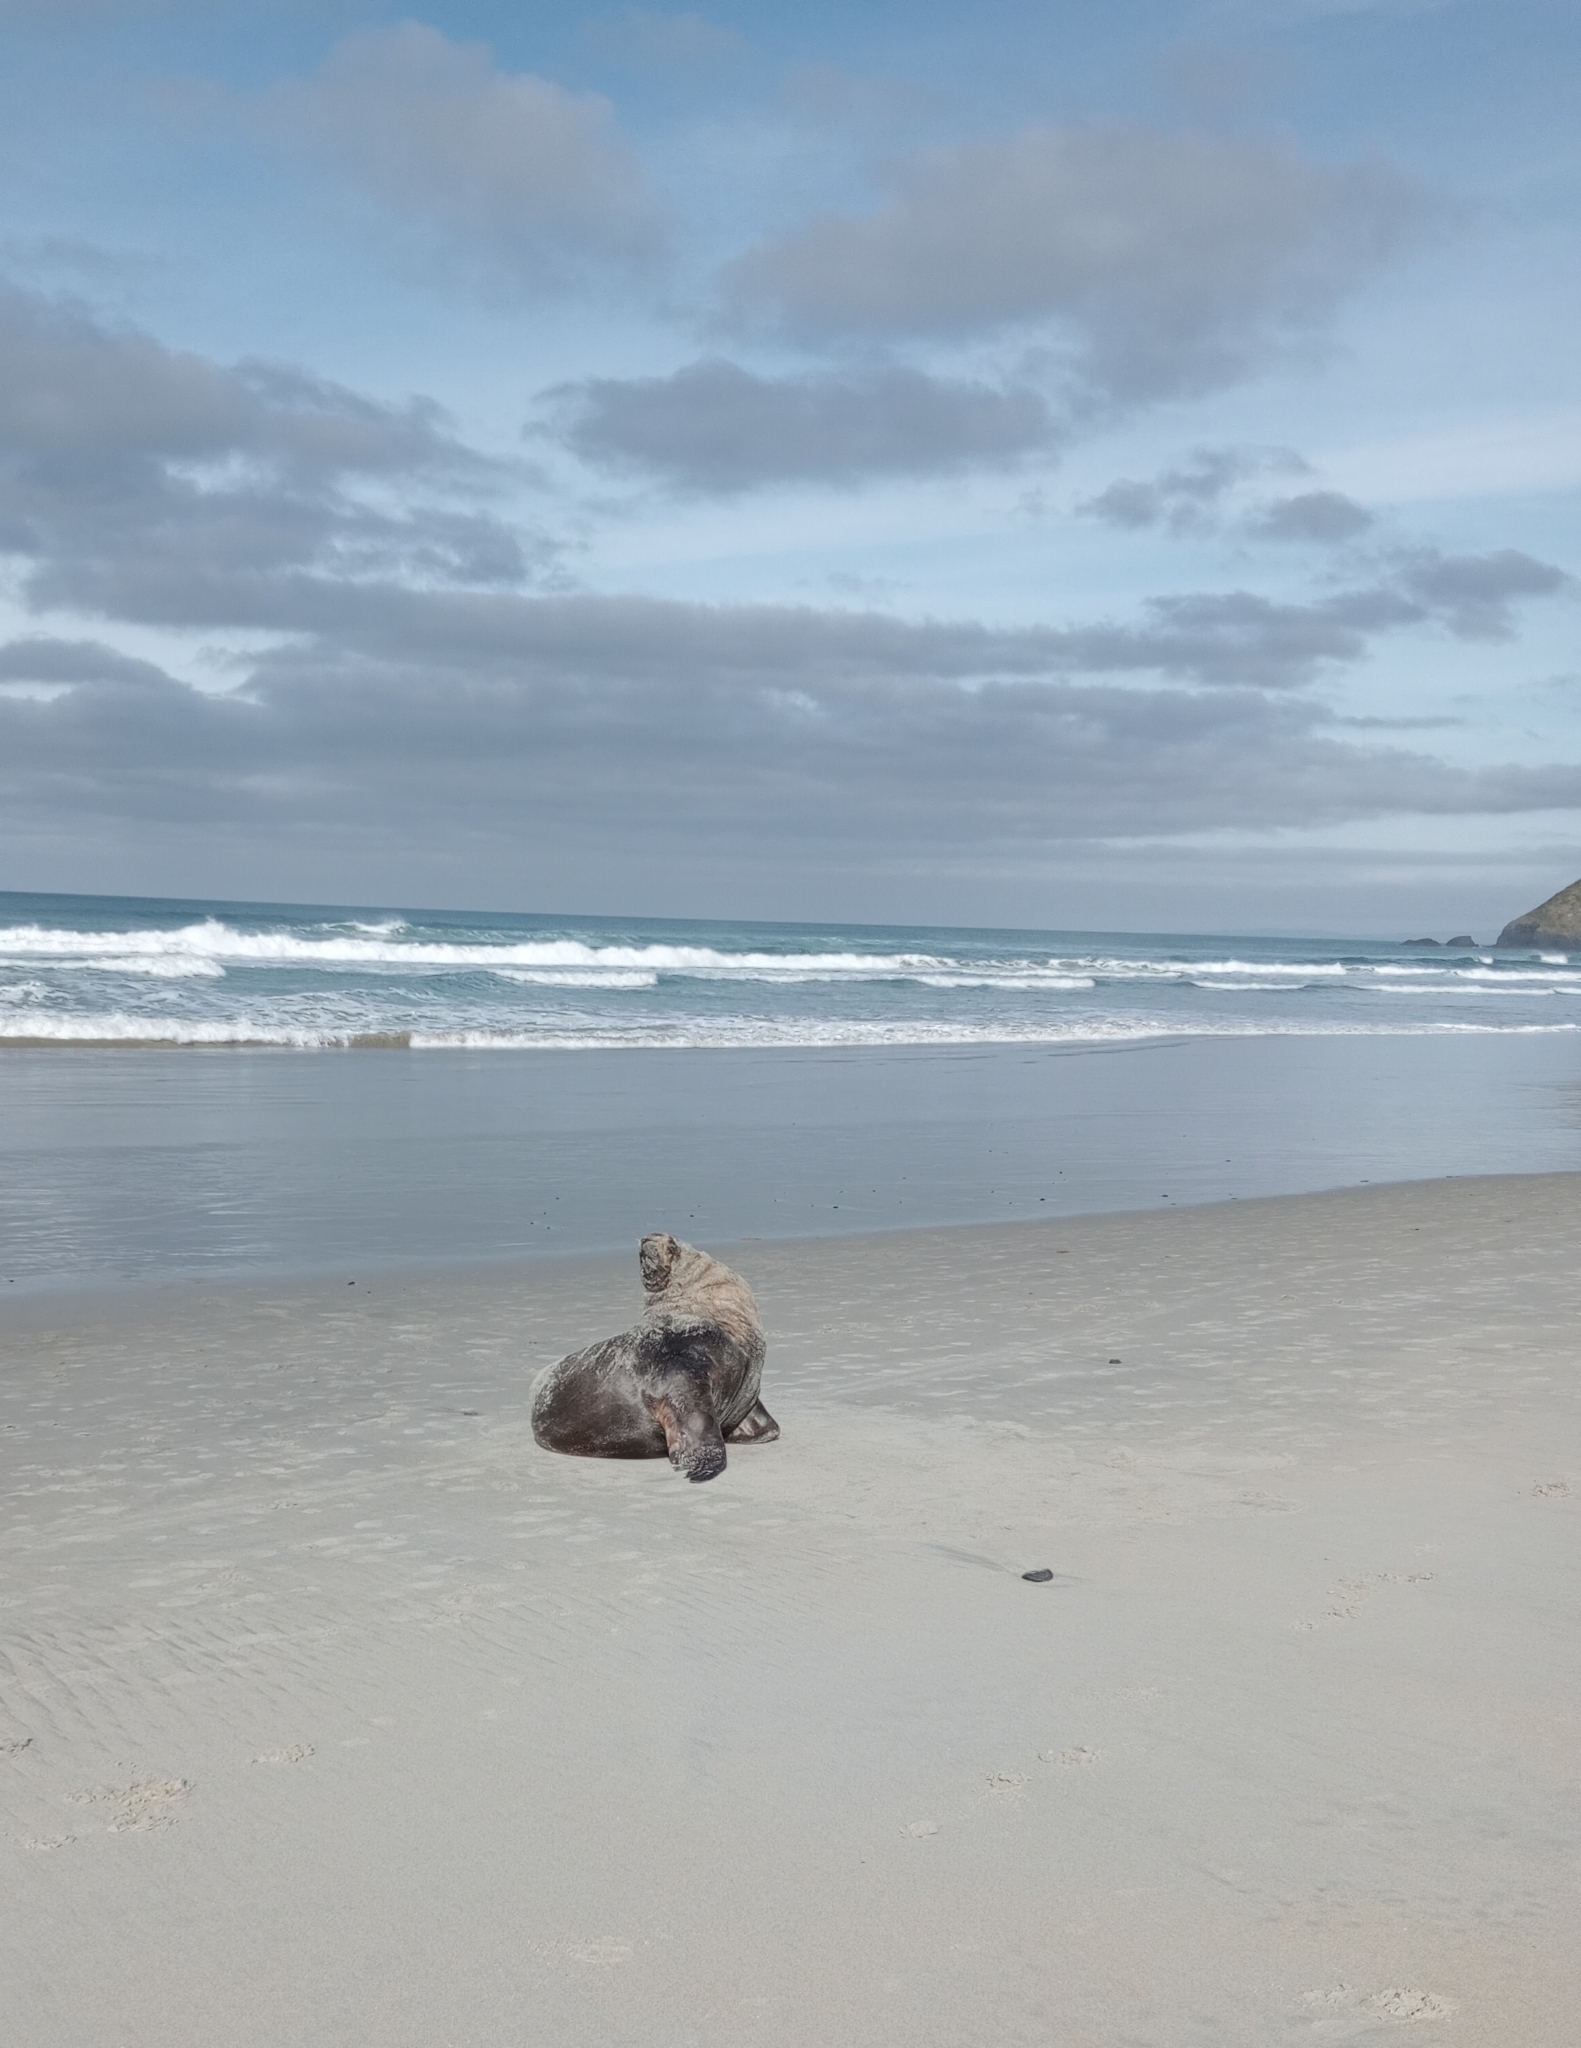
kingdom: Animalia
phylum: Chordata
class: Mammalia
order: Carnivora
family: Otariidae
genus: Phocarctos
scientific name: Phocarctos hookeri
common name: New zealand sea lion
